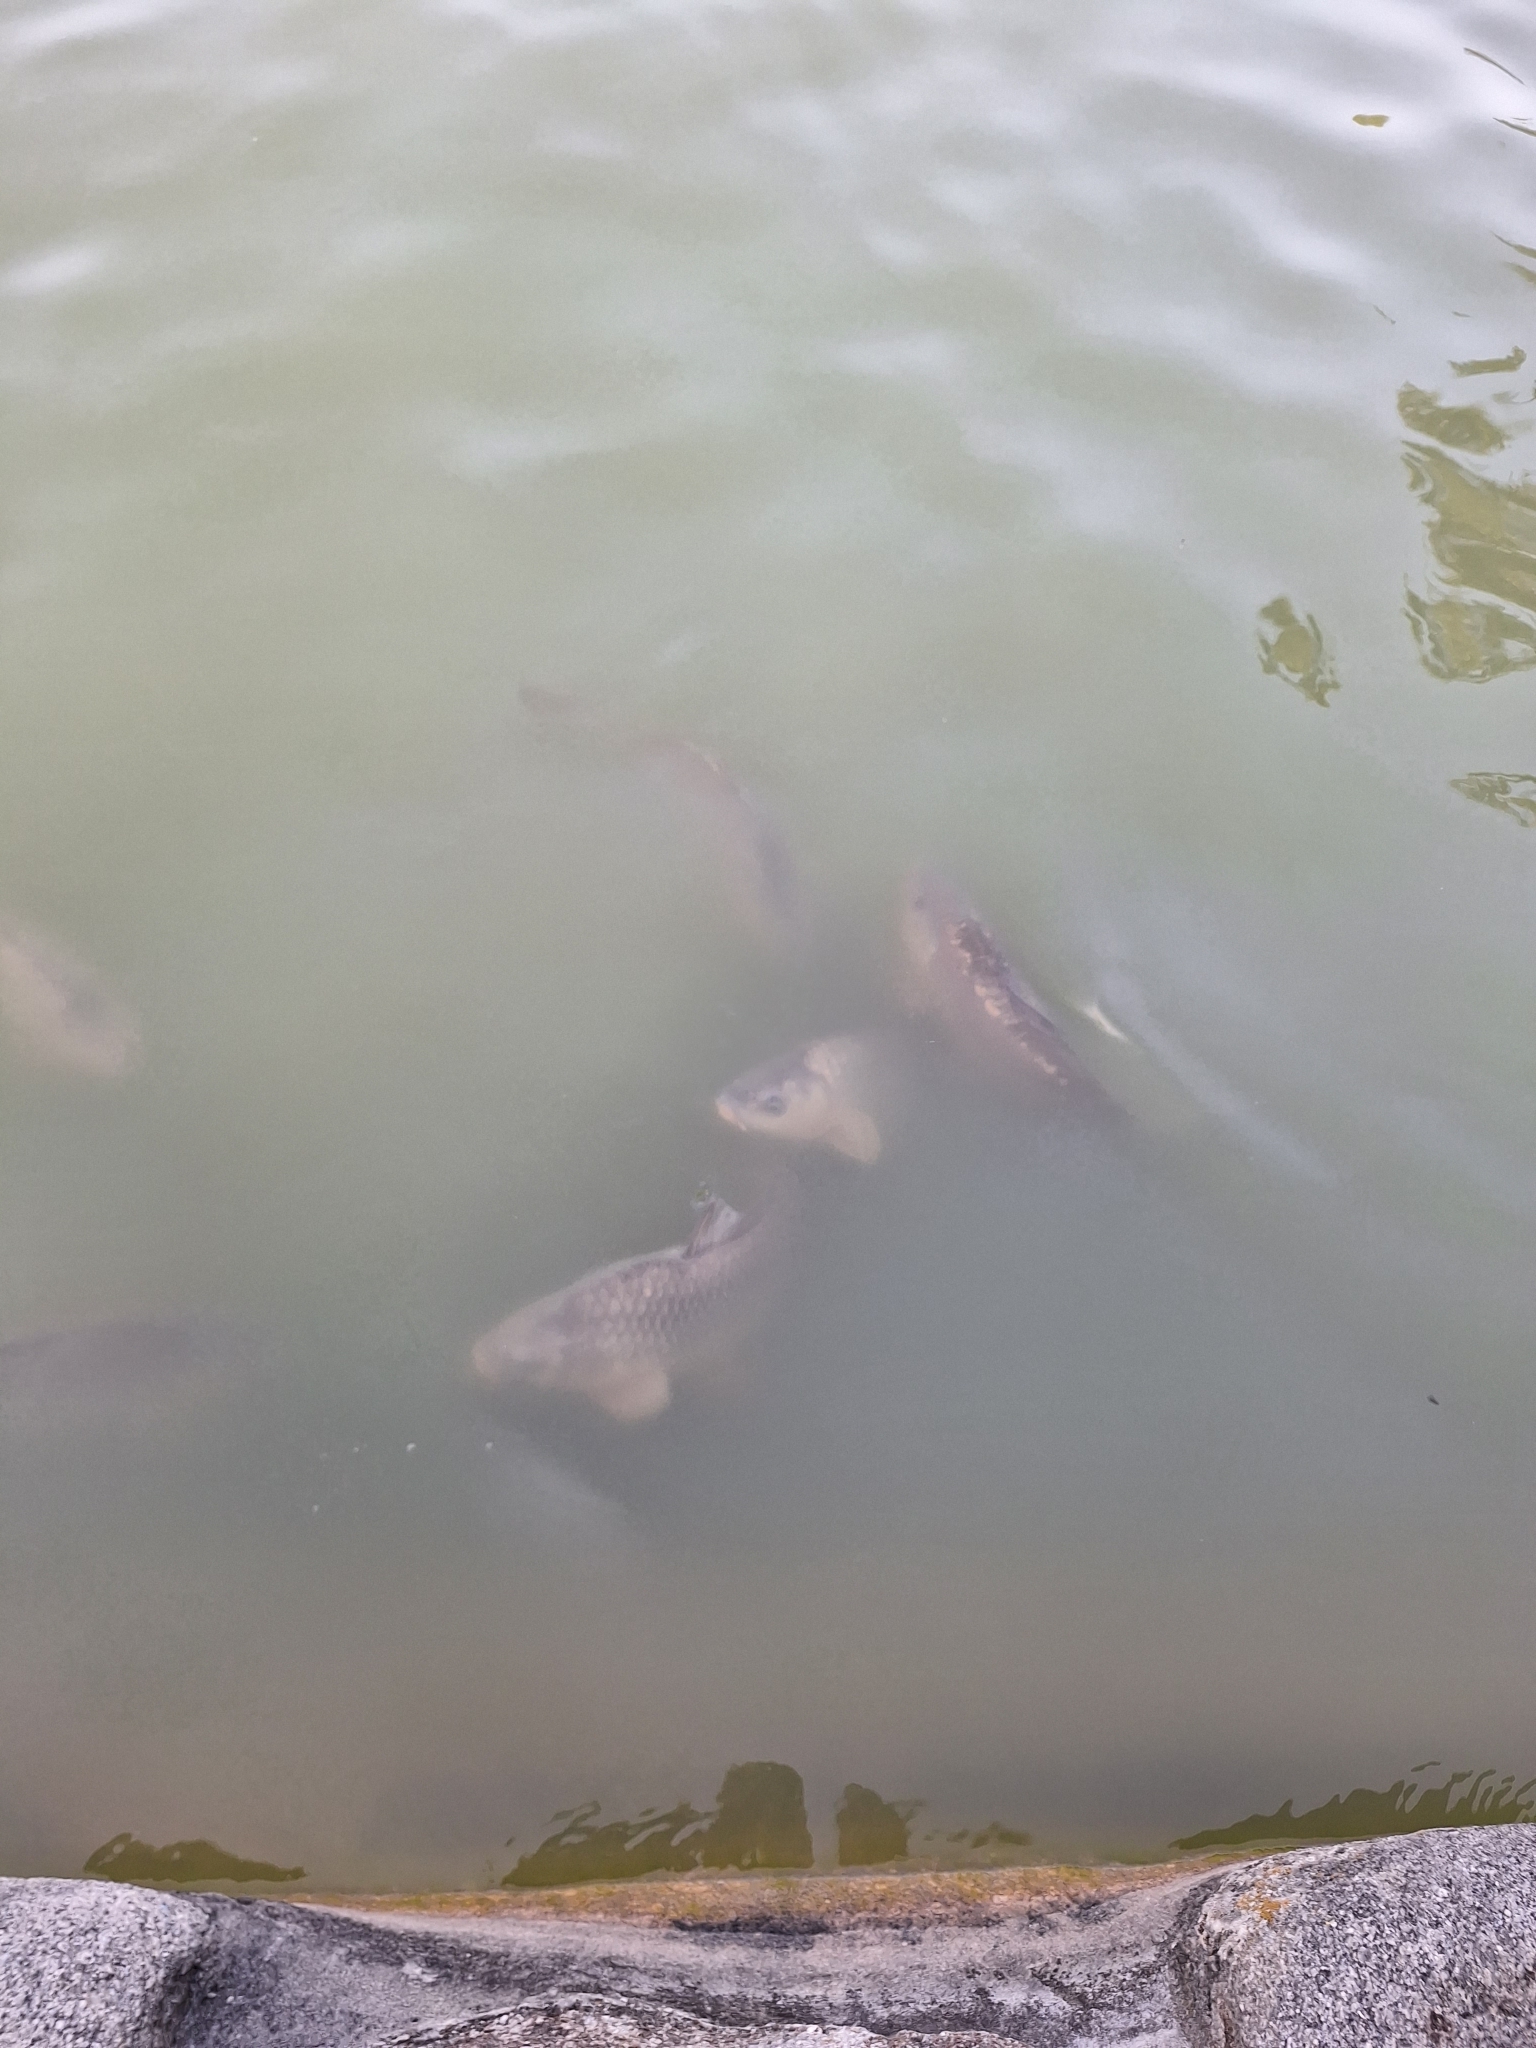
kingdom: Animalia
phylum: Chordata
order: Cypriniformes
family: Cyprinidae
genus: Cyprinus
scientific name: Cyprinus carpio
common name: Common carp
